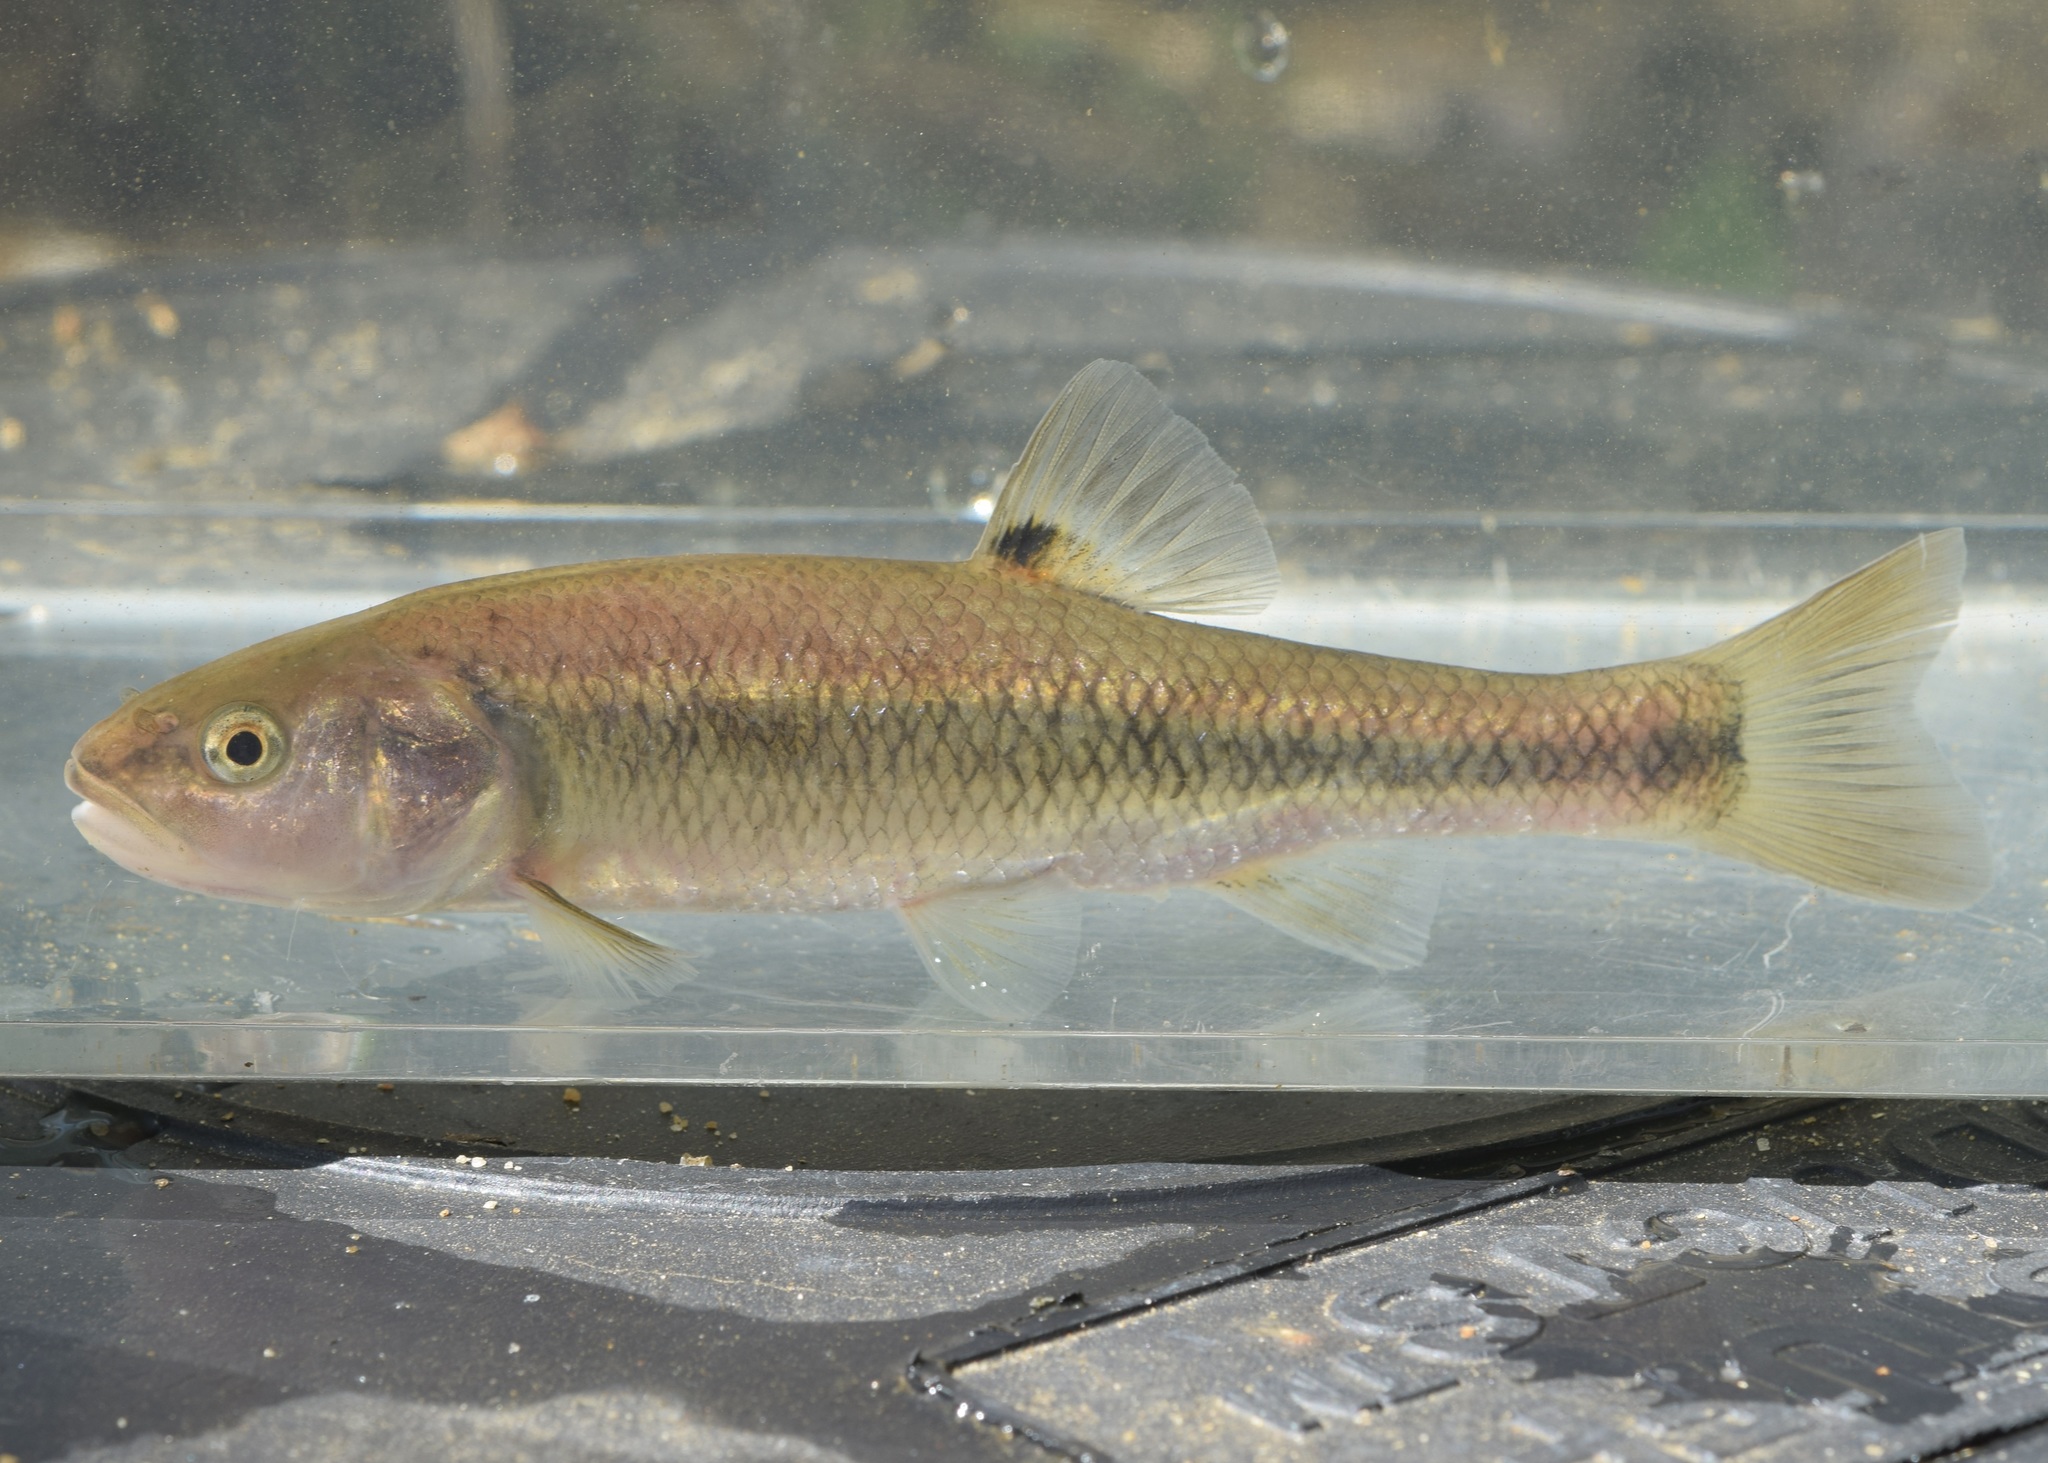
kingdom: Animalia
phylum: Chordata
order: Cypriniformes
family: Cyprinidae
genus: Semotilus
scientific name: Semotilus atromaculatus
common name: Creek chub
